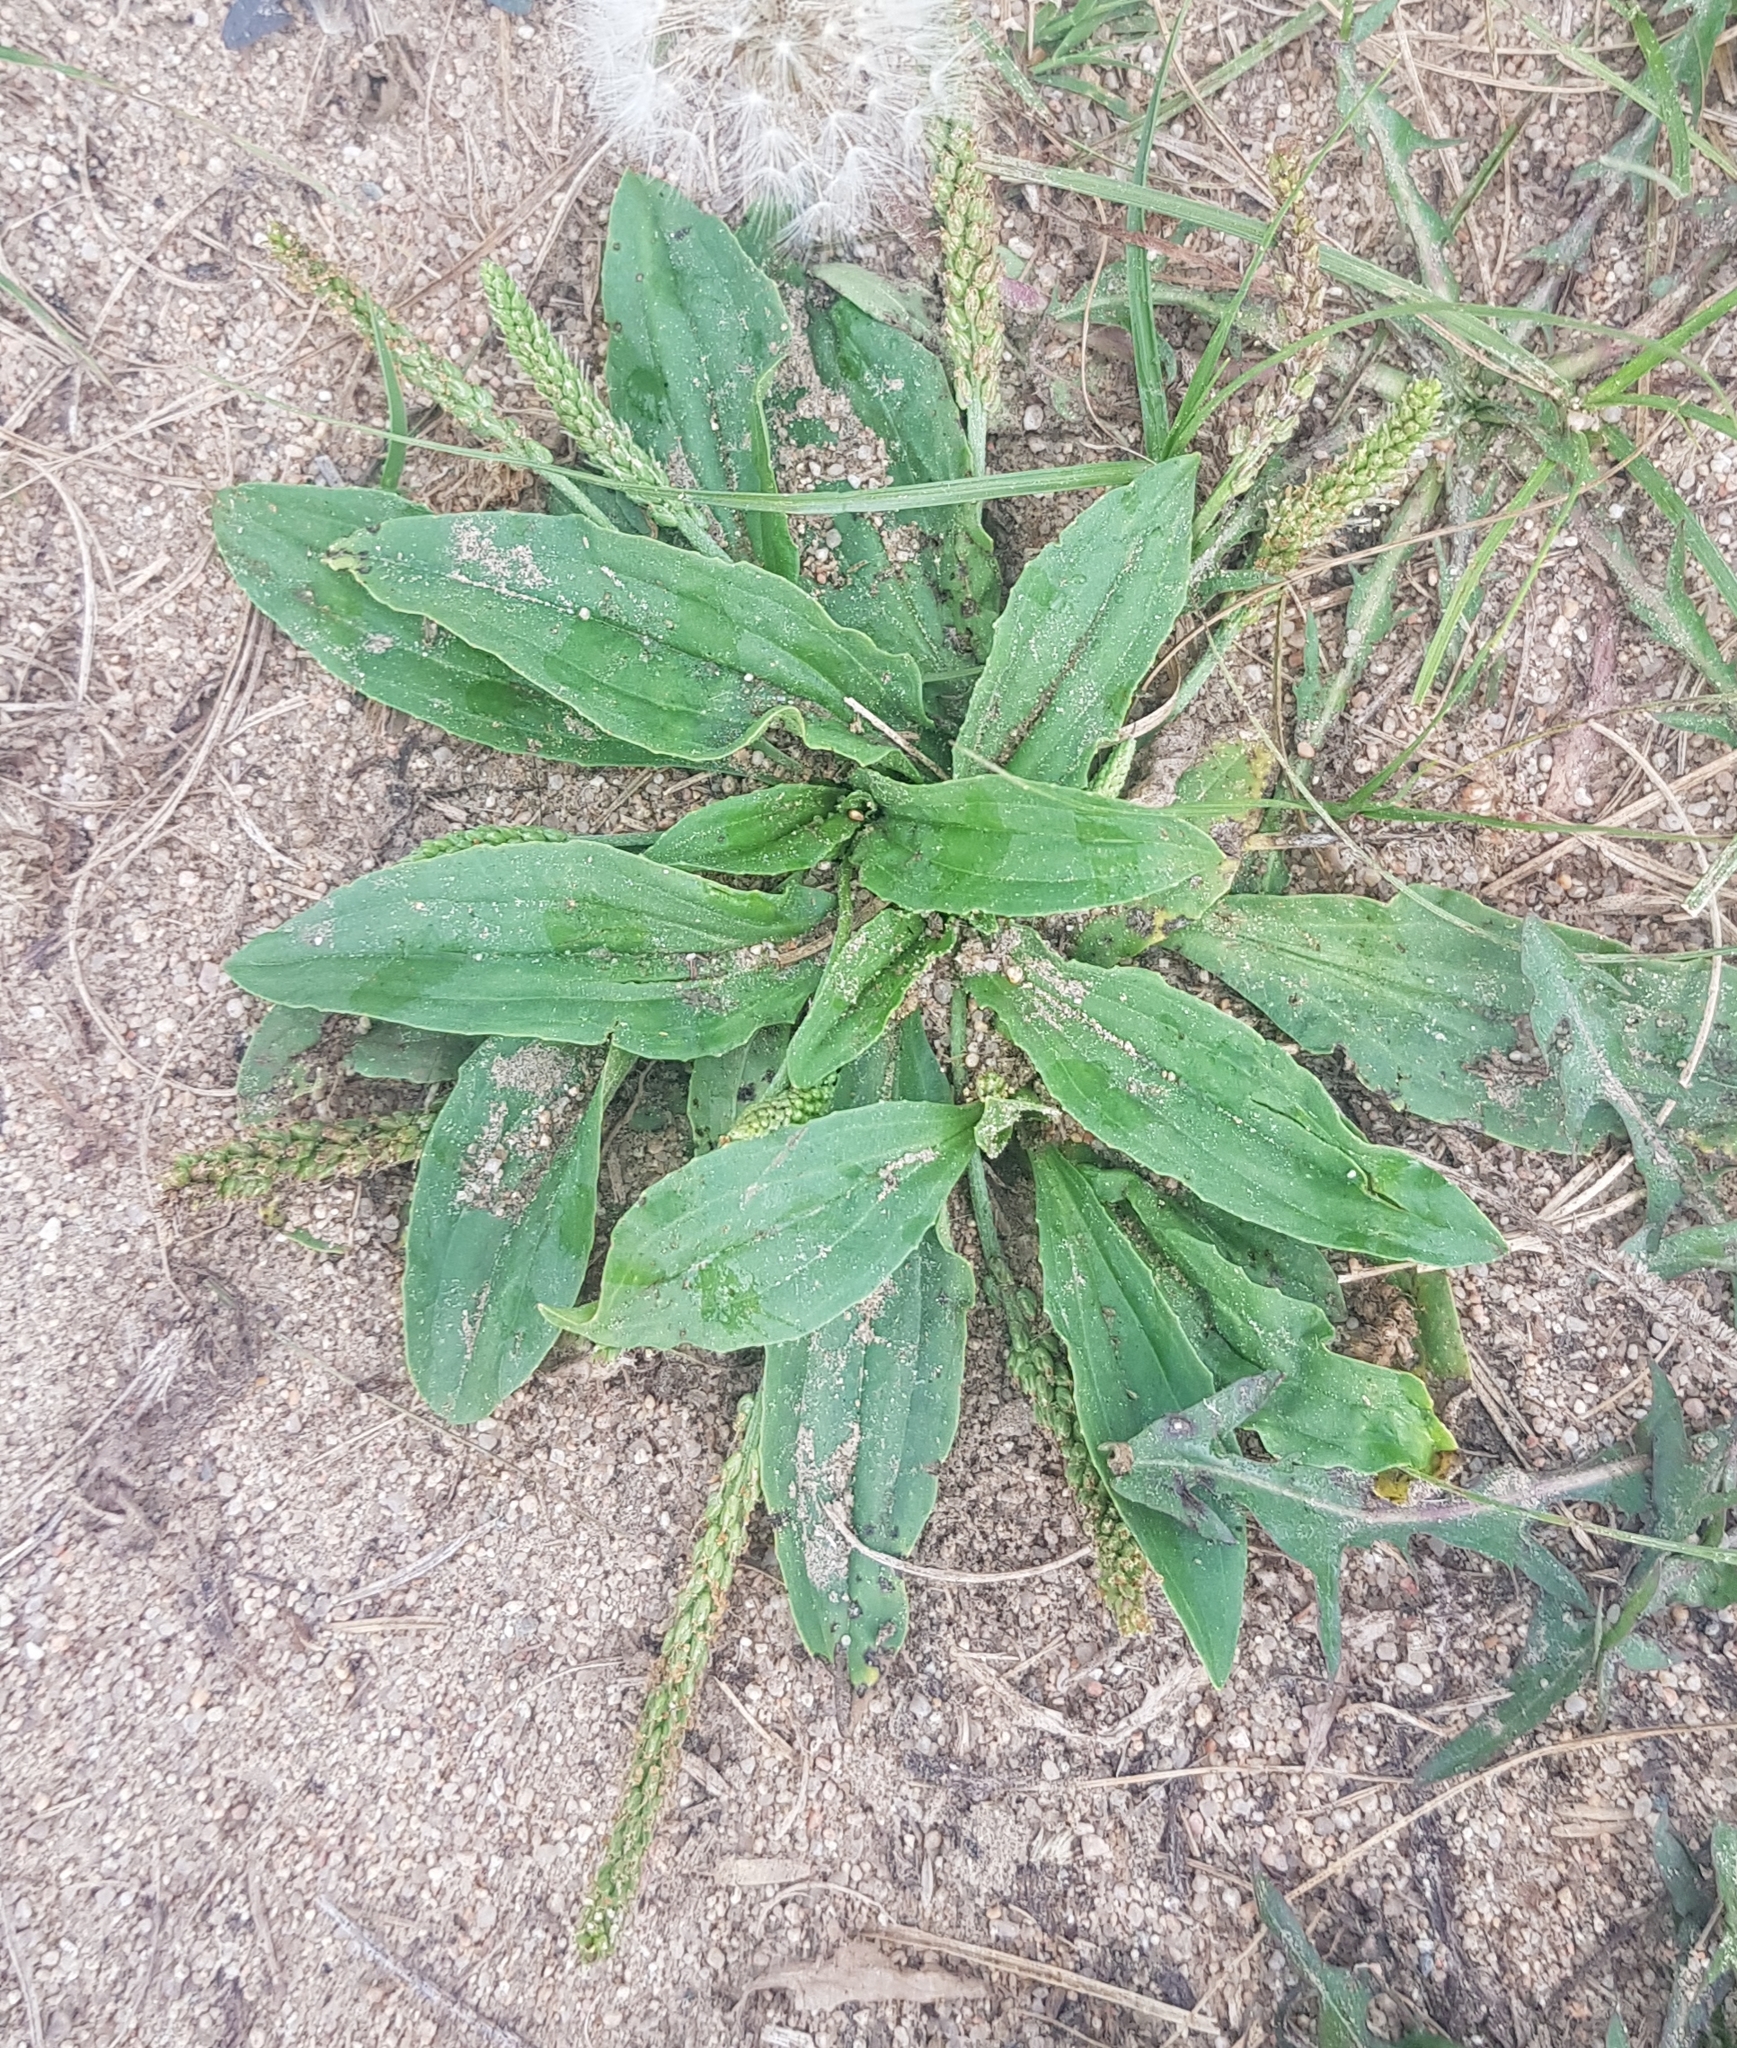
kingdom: Plantae
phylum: Tracheophyta
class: Magnoliopsida
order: Lamiales
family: Plantaginaceae
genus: Plantago
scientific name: Plantago depressa
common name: Depressed plantain
